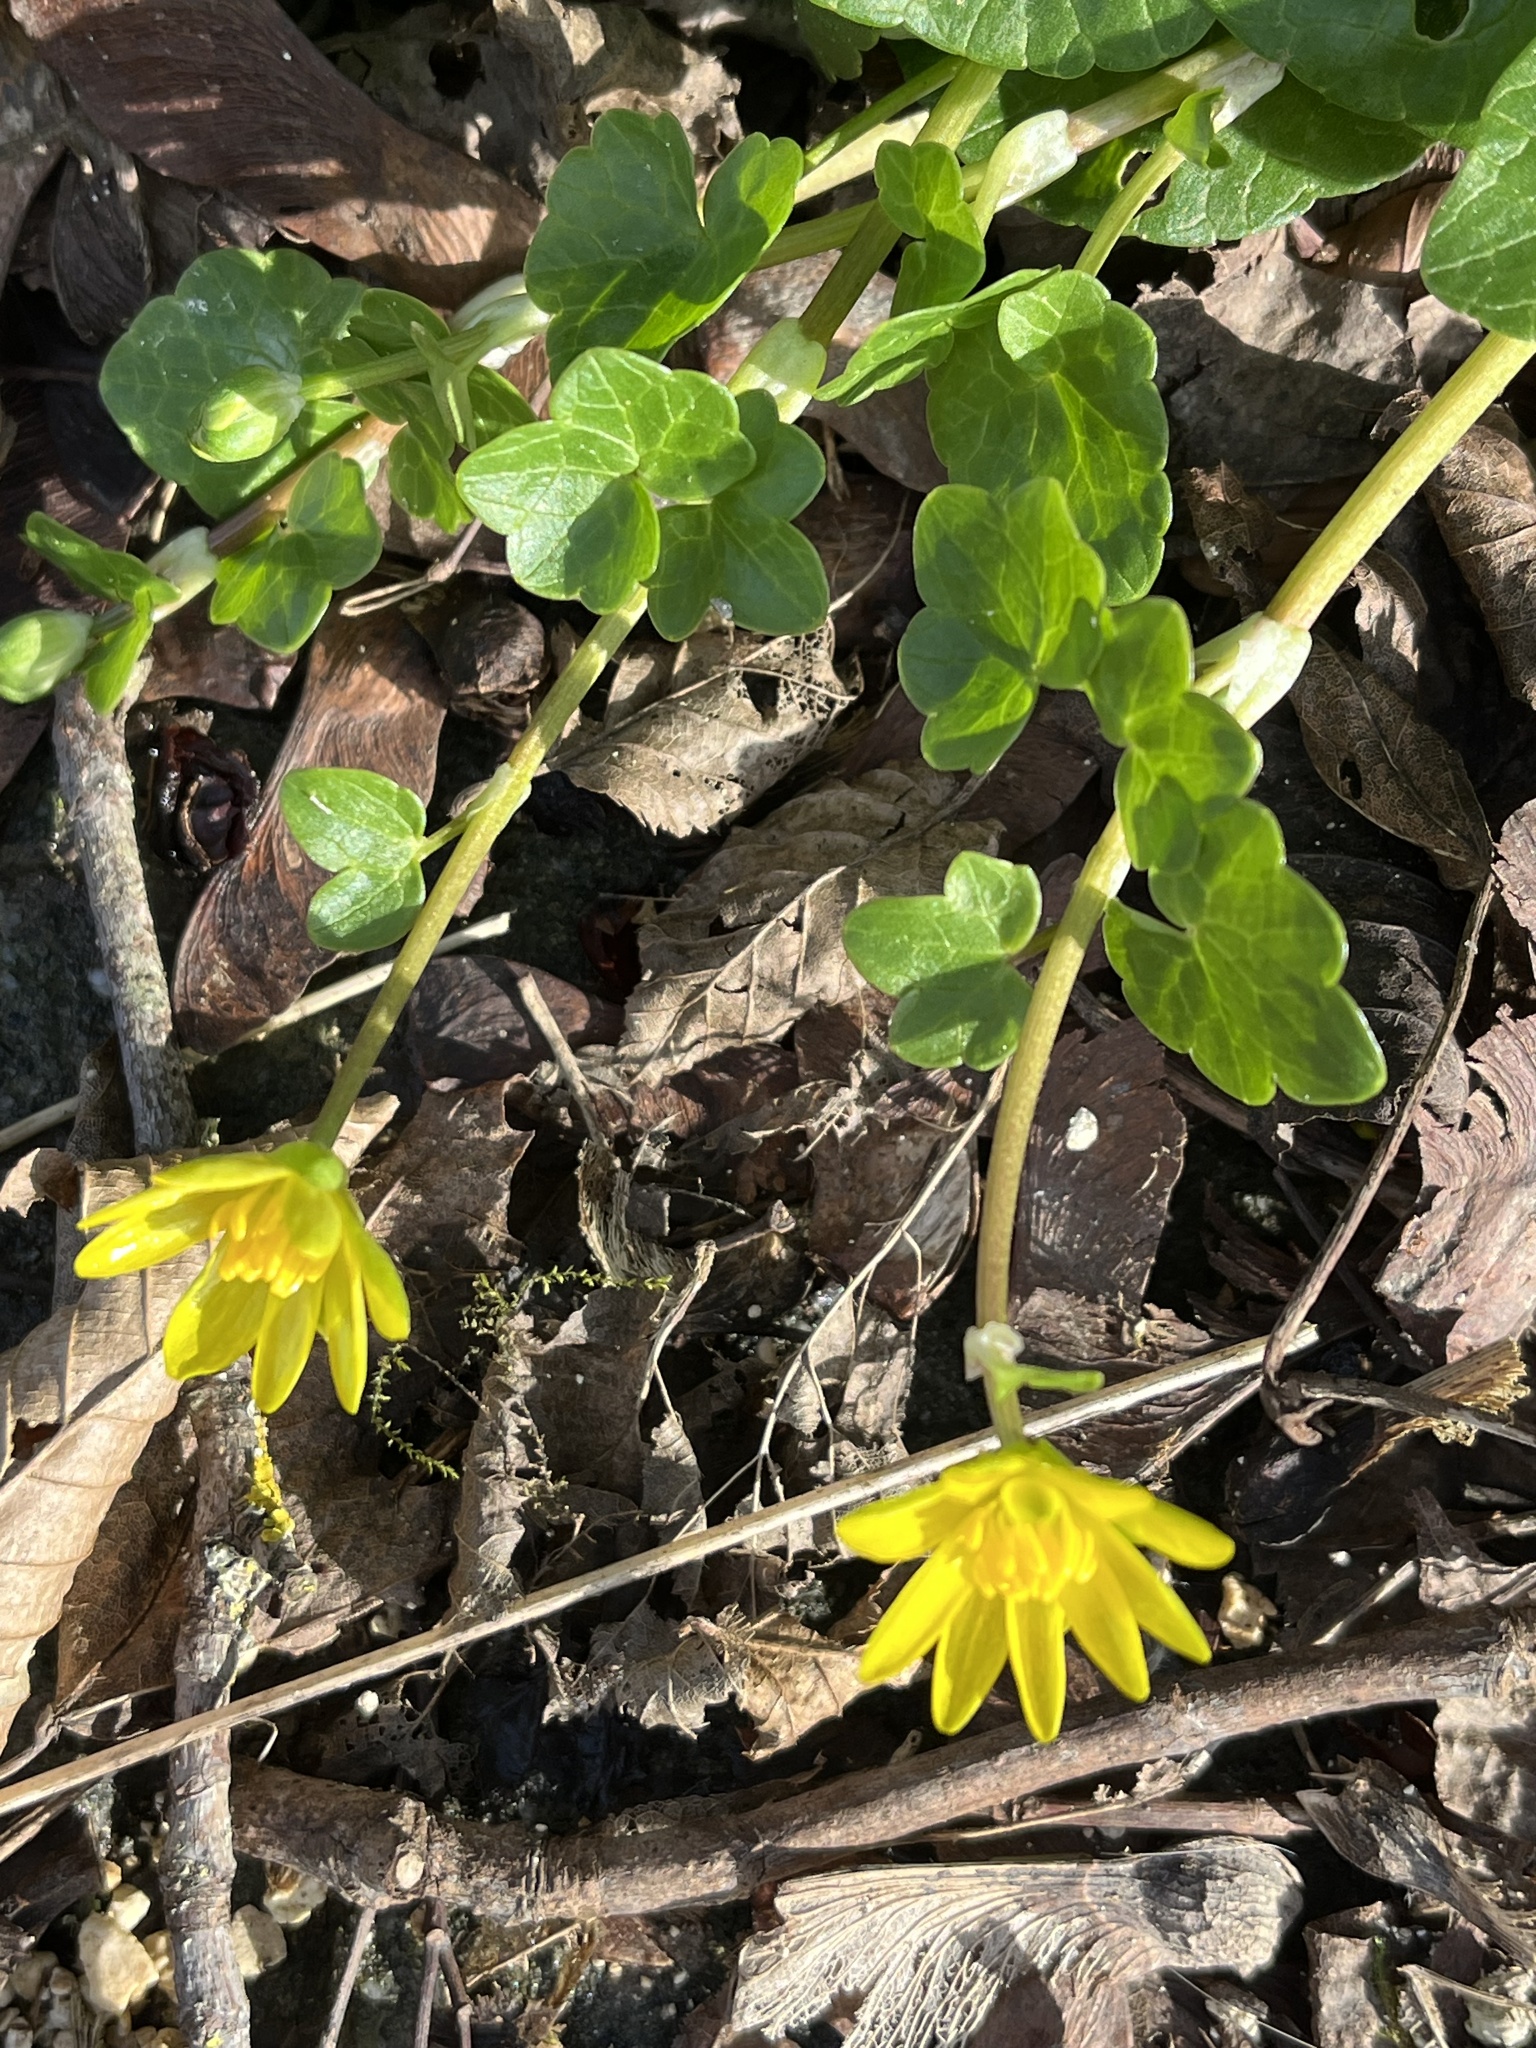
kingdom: Plantae
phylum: Tracheophyta
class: Magnoliopsida
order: Ranunculales
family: Ranunculaceae
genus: Ficaria
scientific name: Ficaria verna
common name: Lesser celandine
